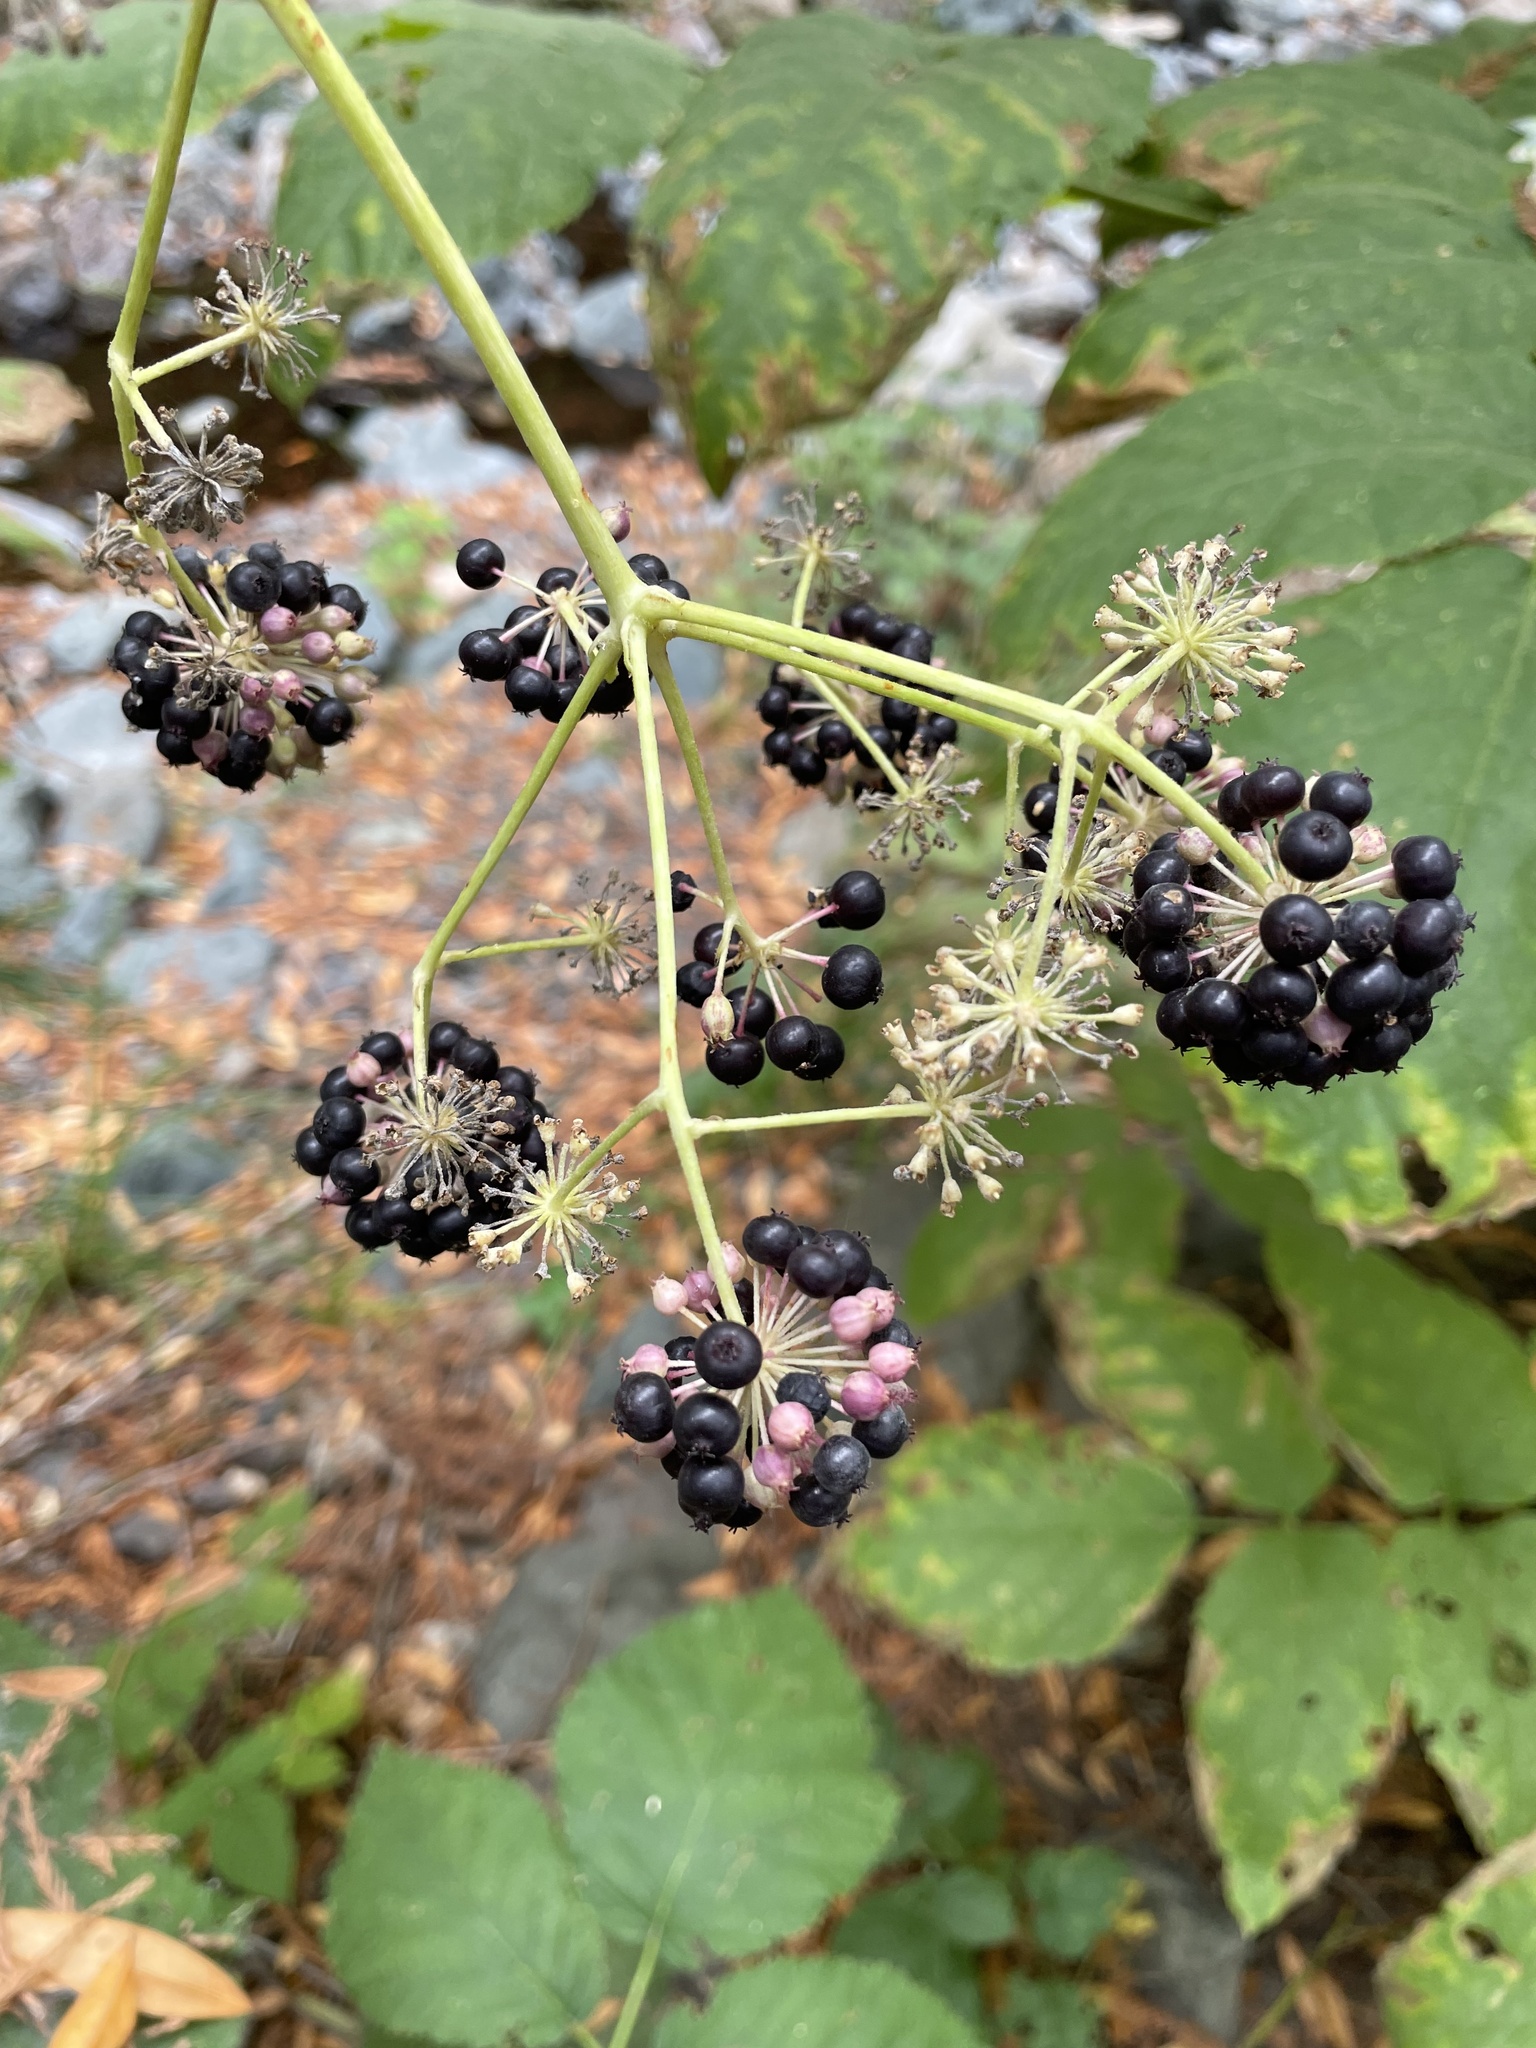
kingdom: Plantae
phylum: Tracheophyta
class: Magnoliopsida
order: Apiales
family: Araliaceae
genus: Aralia
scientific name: Aralia californica
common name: California-ginseng
